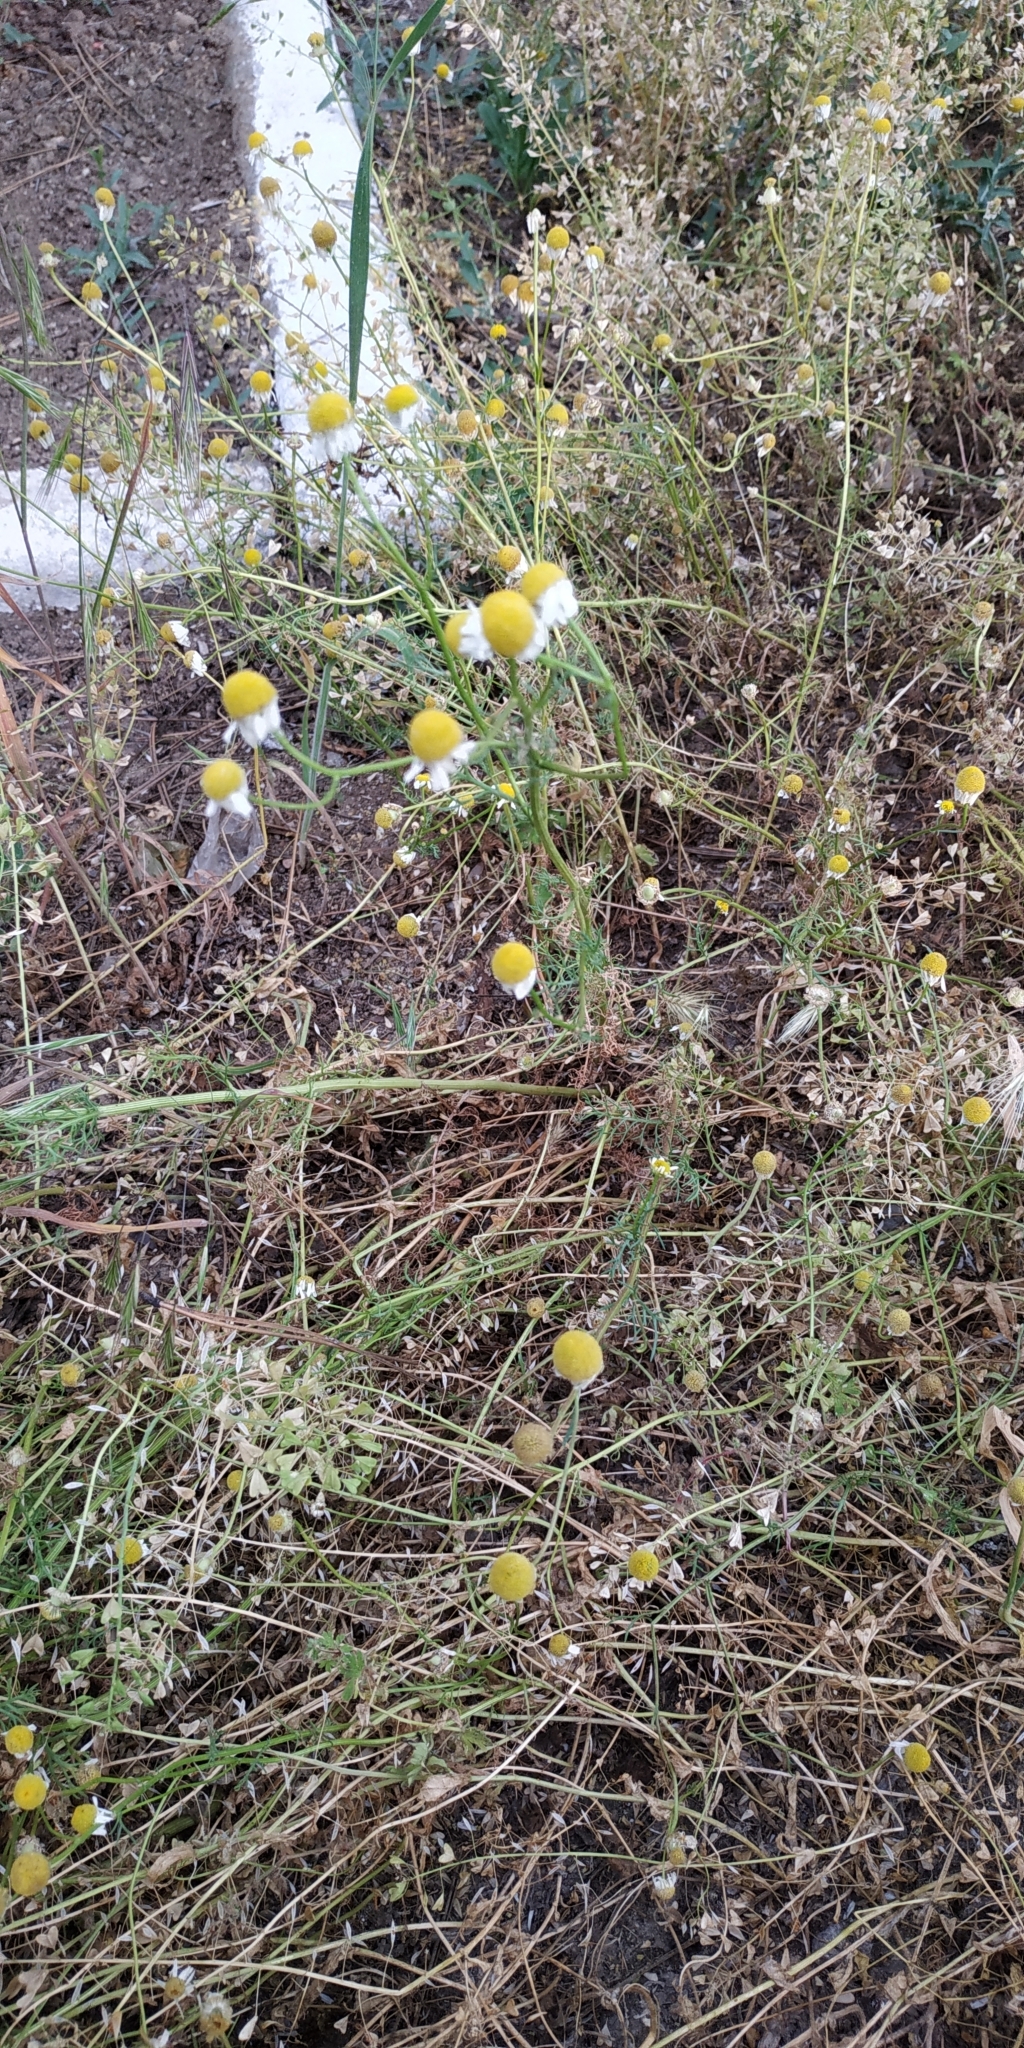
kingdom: Plantae
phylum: Tracheophyta
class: Magnoliopsida
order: Asterales
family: Asteraceae
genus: Matricaria
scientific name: Matricaria chamomilla
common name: Scented mayweed
